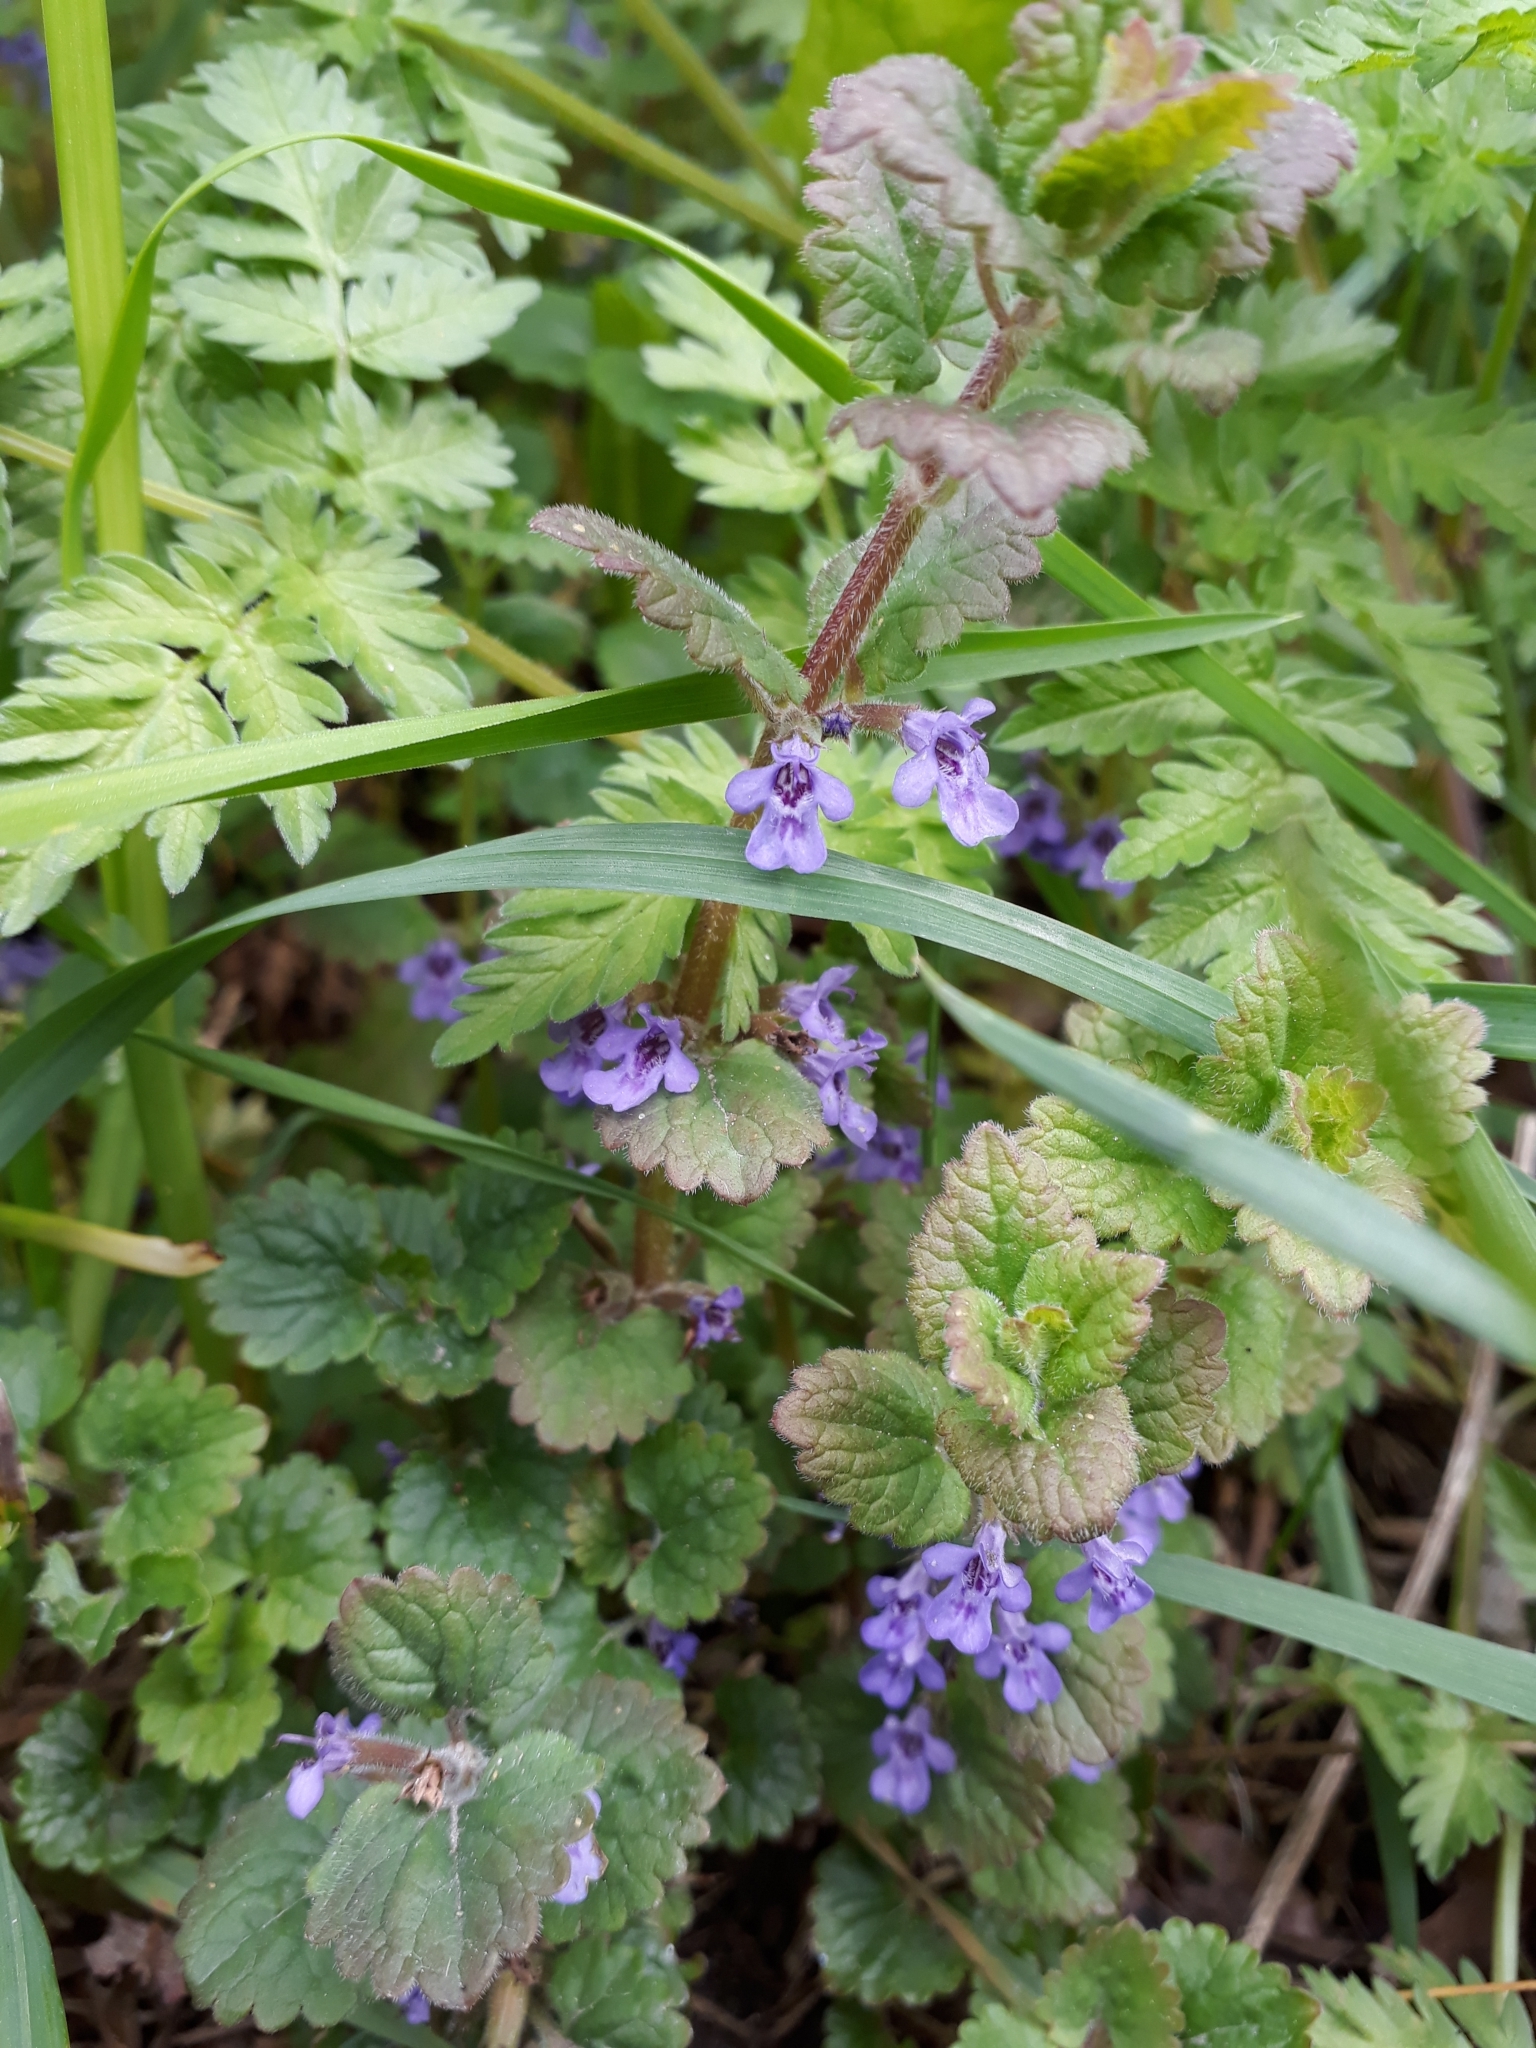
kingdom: Plantae
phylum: Tracheophyta
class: Magnoliopsida
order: Lamiales
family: Lamiaceae
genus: Glechoma
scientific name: Glechoma hederacea
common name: Ground ivy
